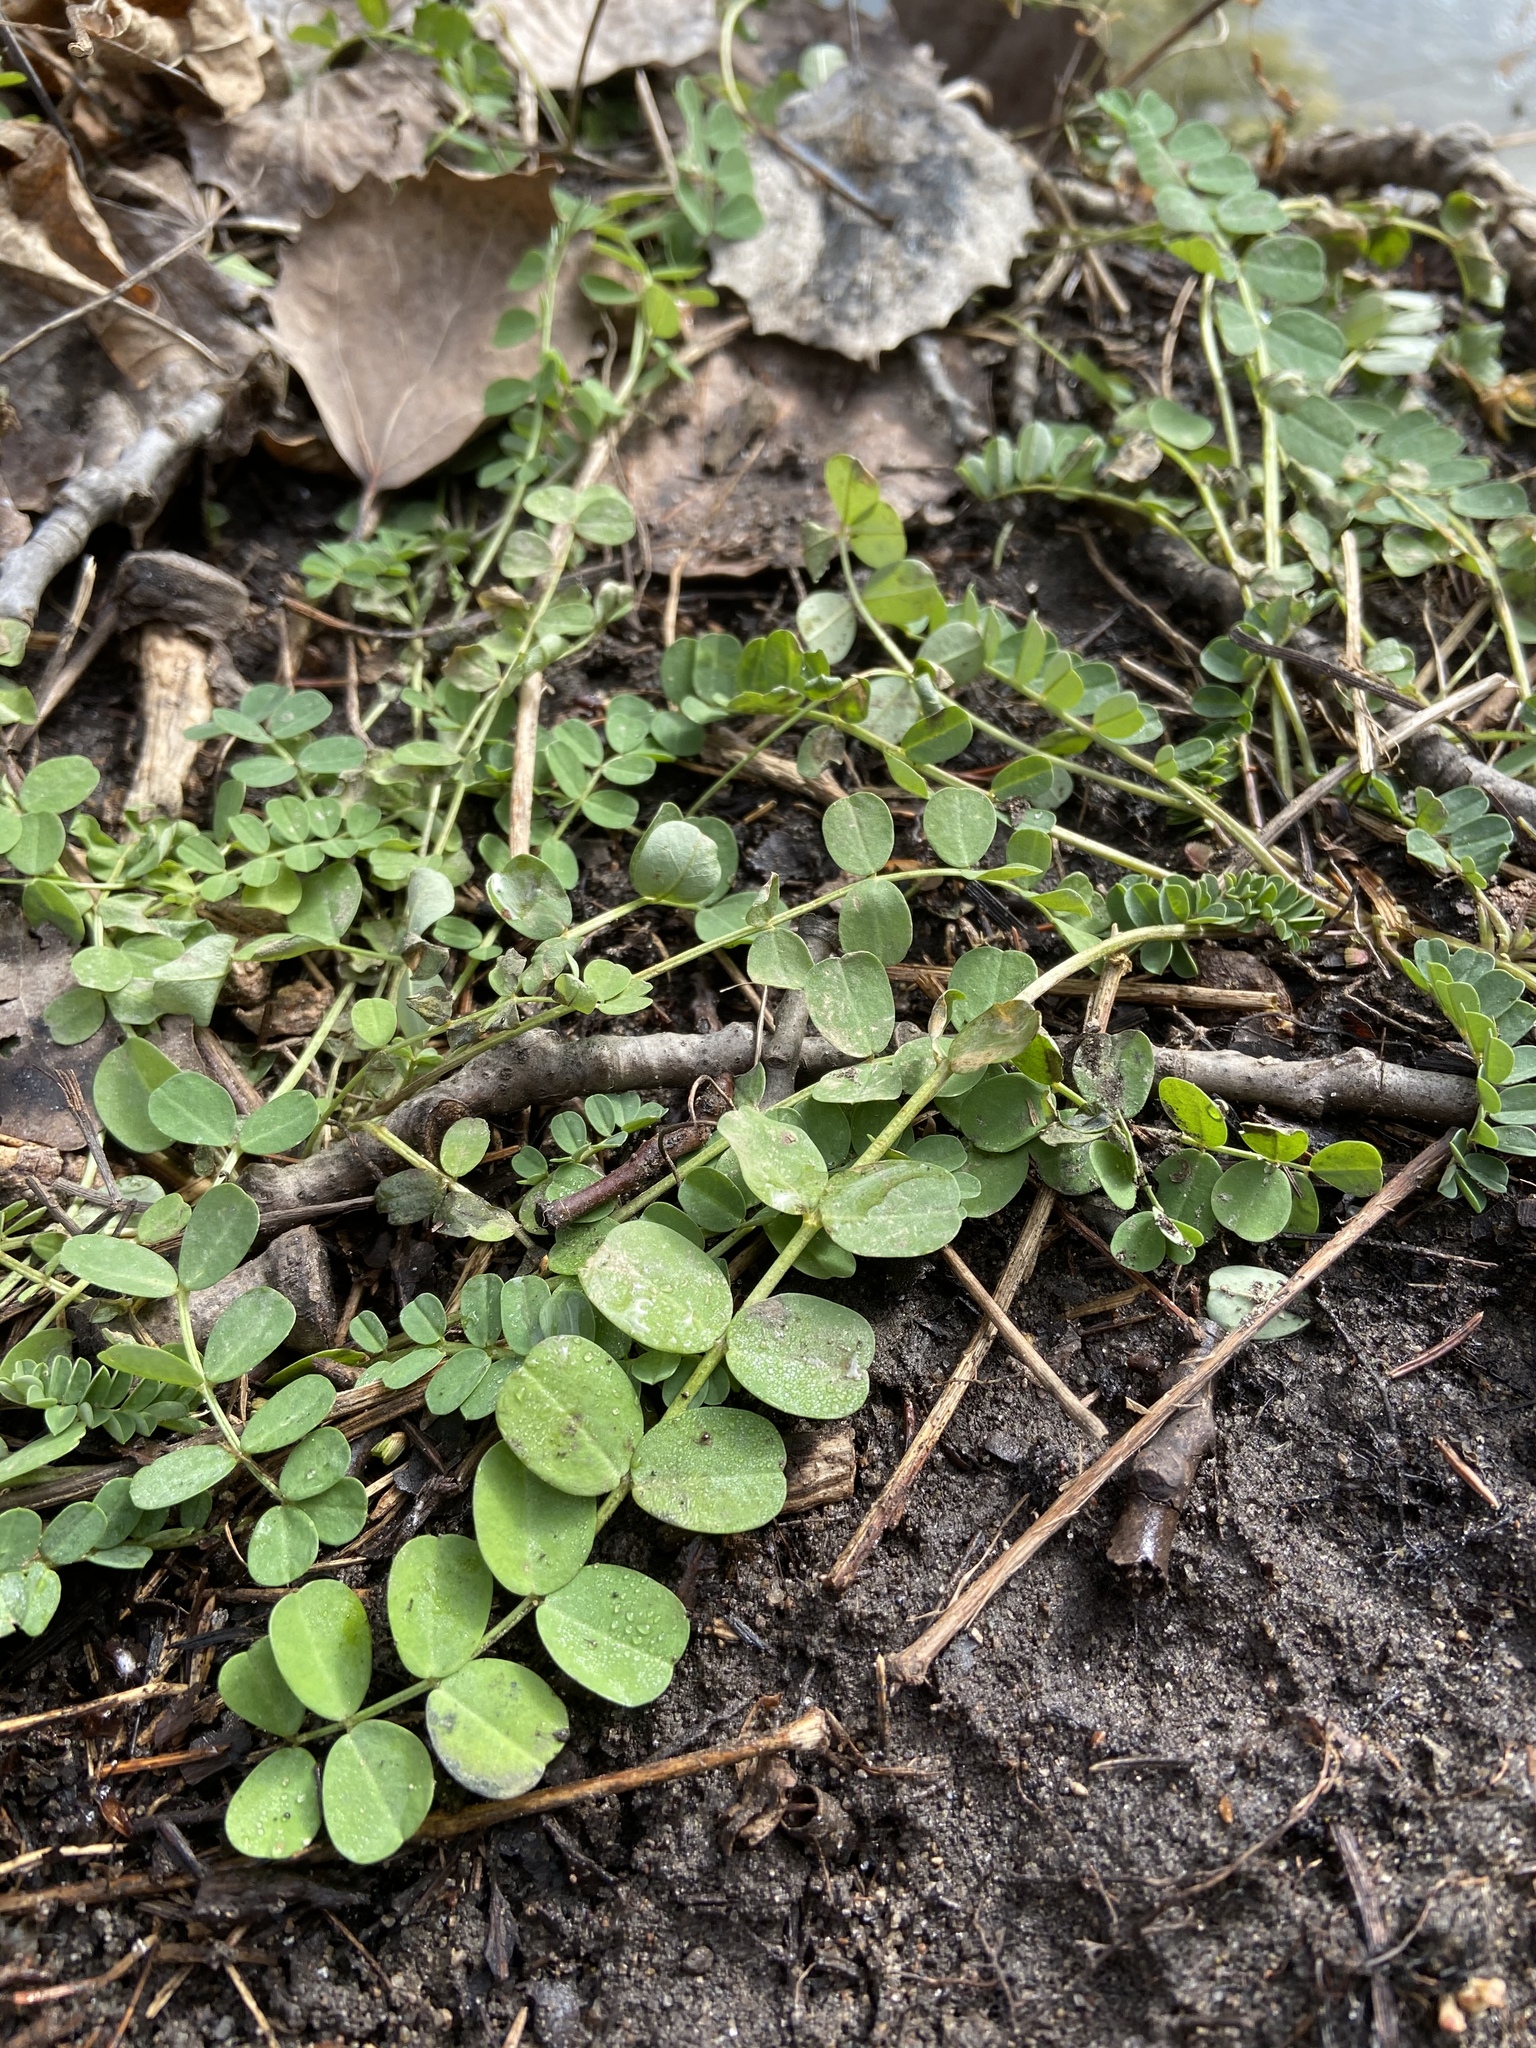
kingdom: Plantae
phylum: Tracheophyta
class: Magnoliopsida
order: Fabales
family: Fabaceae
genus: Coronilla
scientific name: Coronilla varia
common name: Crownvetch
